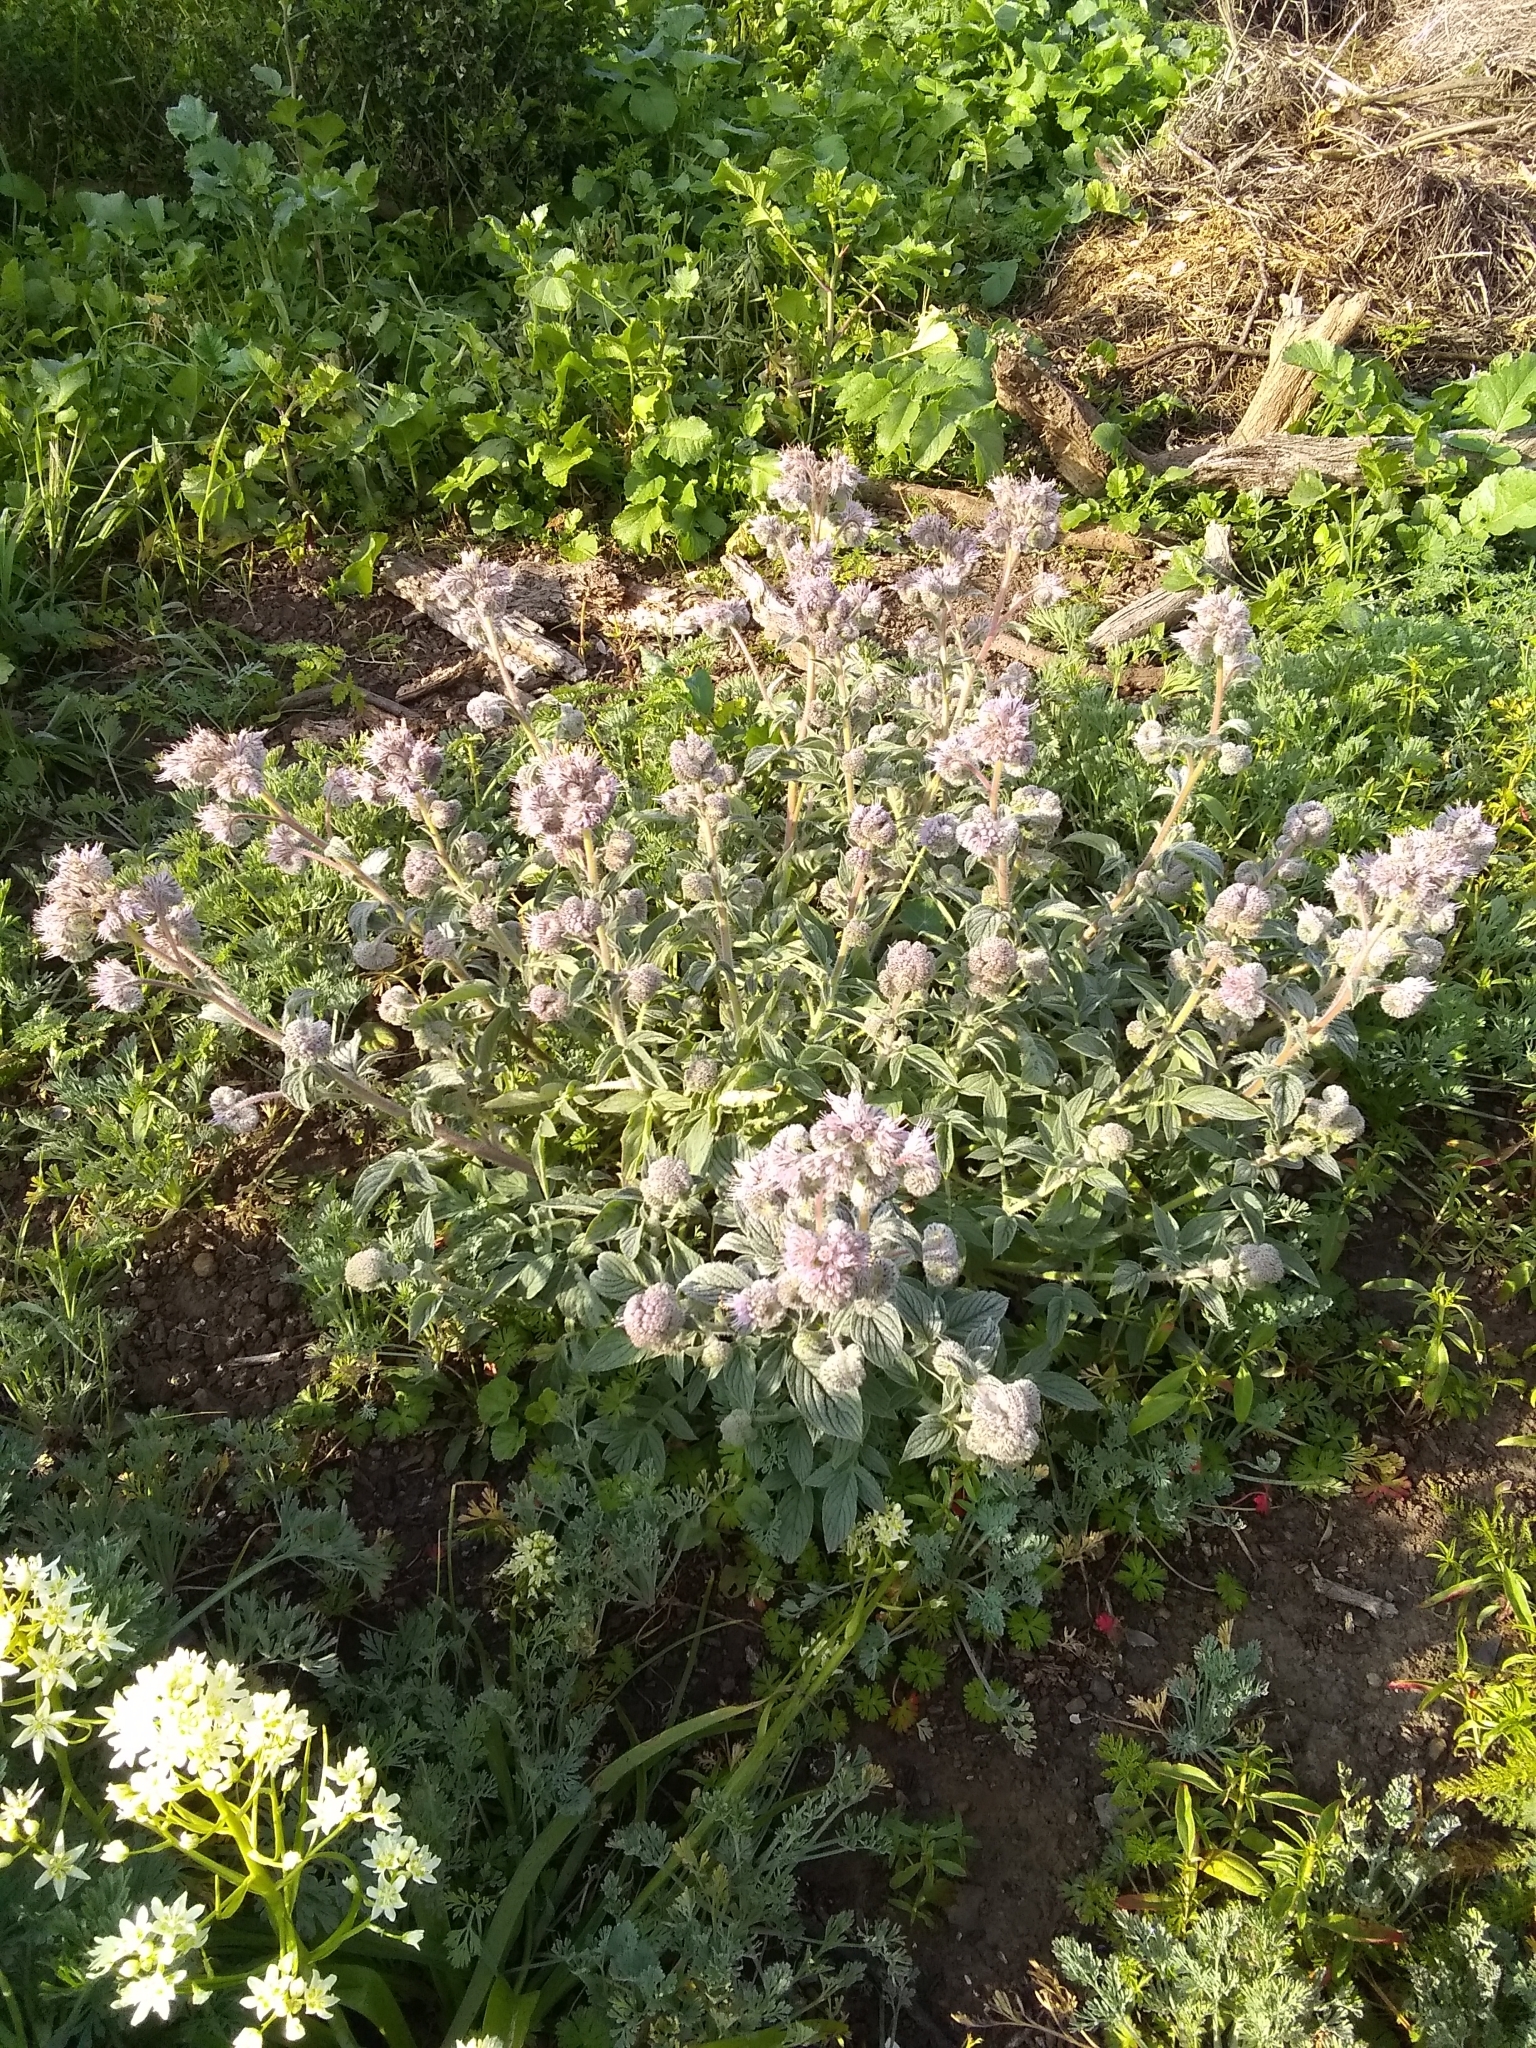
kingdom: Plantae
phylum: Tracheophyta
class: Magnoliopsida
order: Boraginales
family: Hydrophyllaceae
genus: Phacelia
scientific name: Phacelia californica
